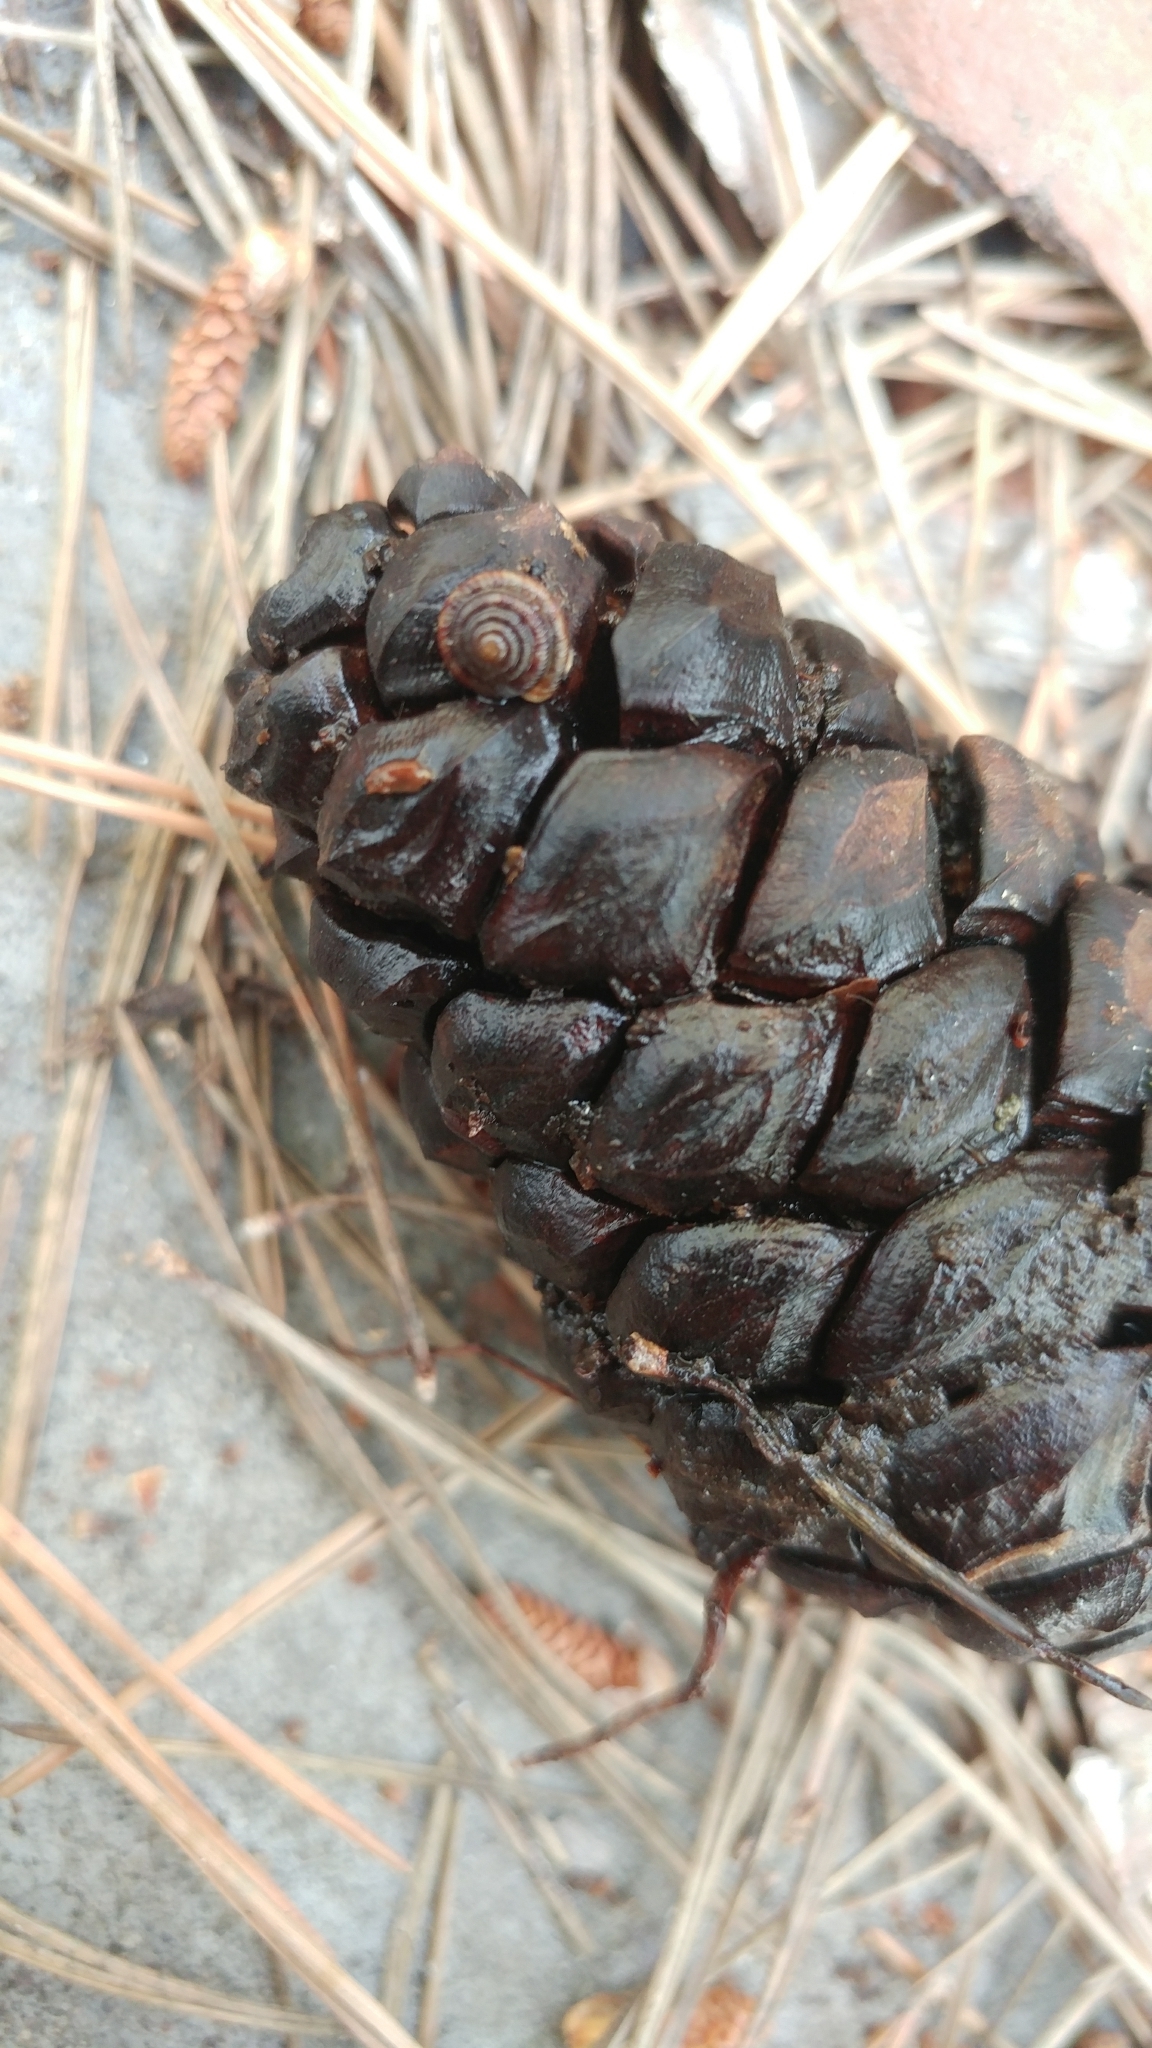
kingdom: Animalia
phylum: Mollusca
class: Gastropoda
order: Stylommatophora
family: Discidae
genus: Discus
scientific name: Discus rotundatus
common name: Rounded snail
